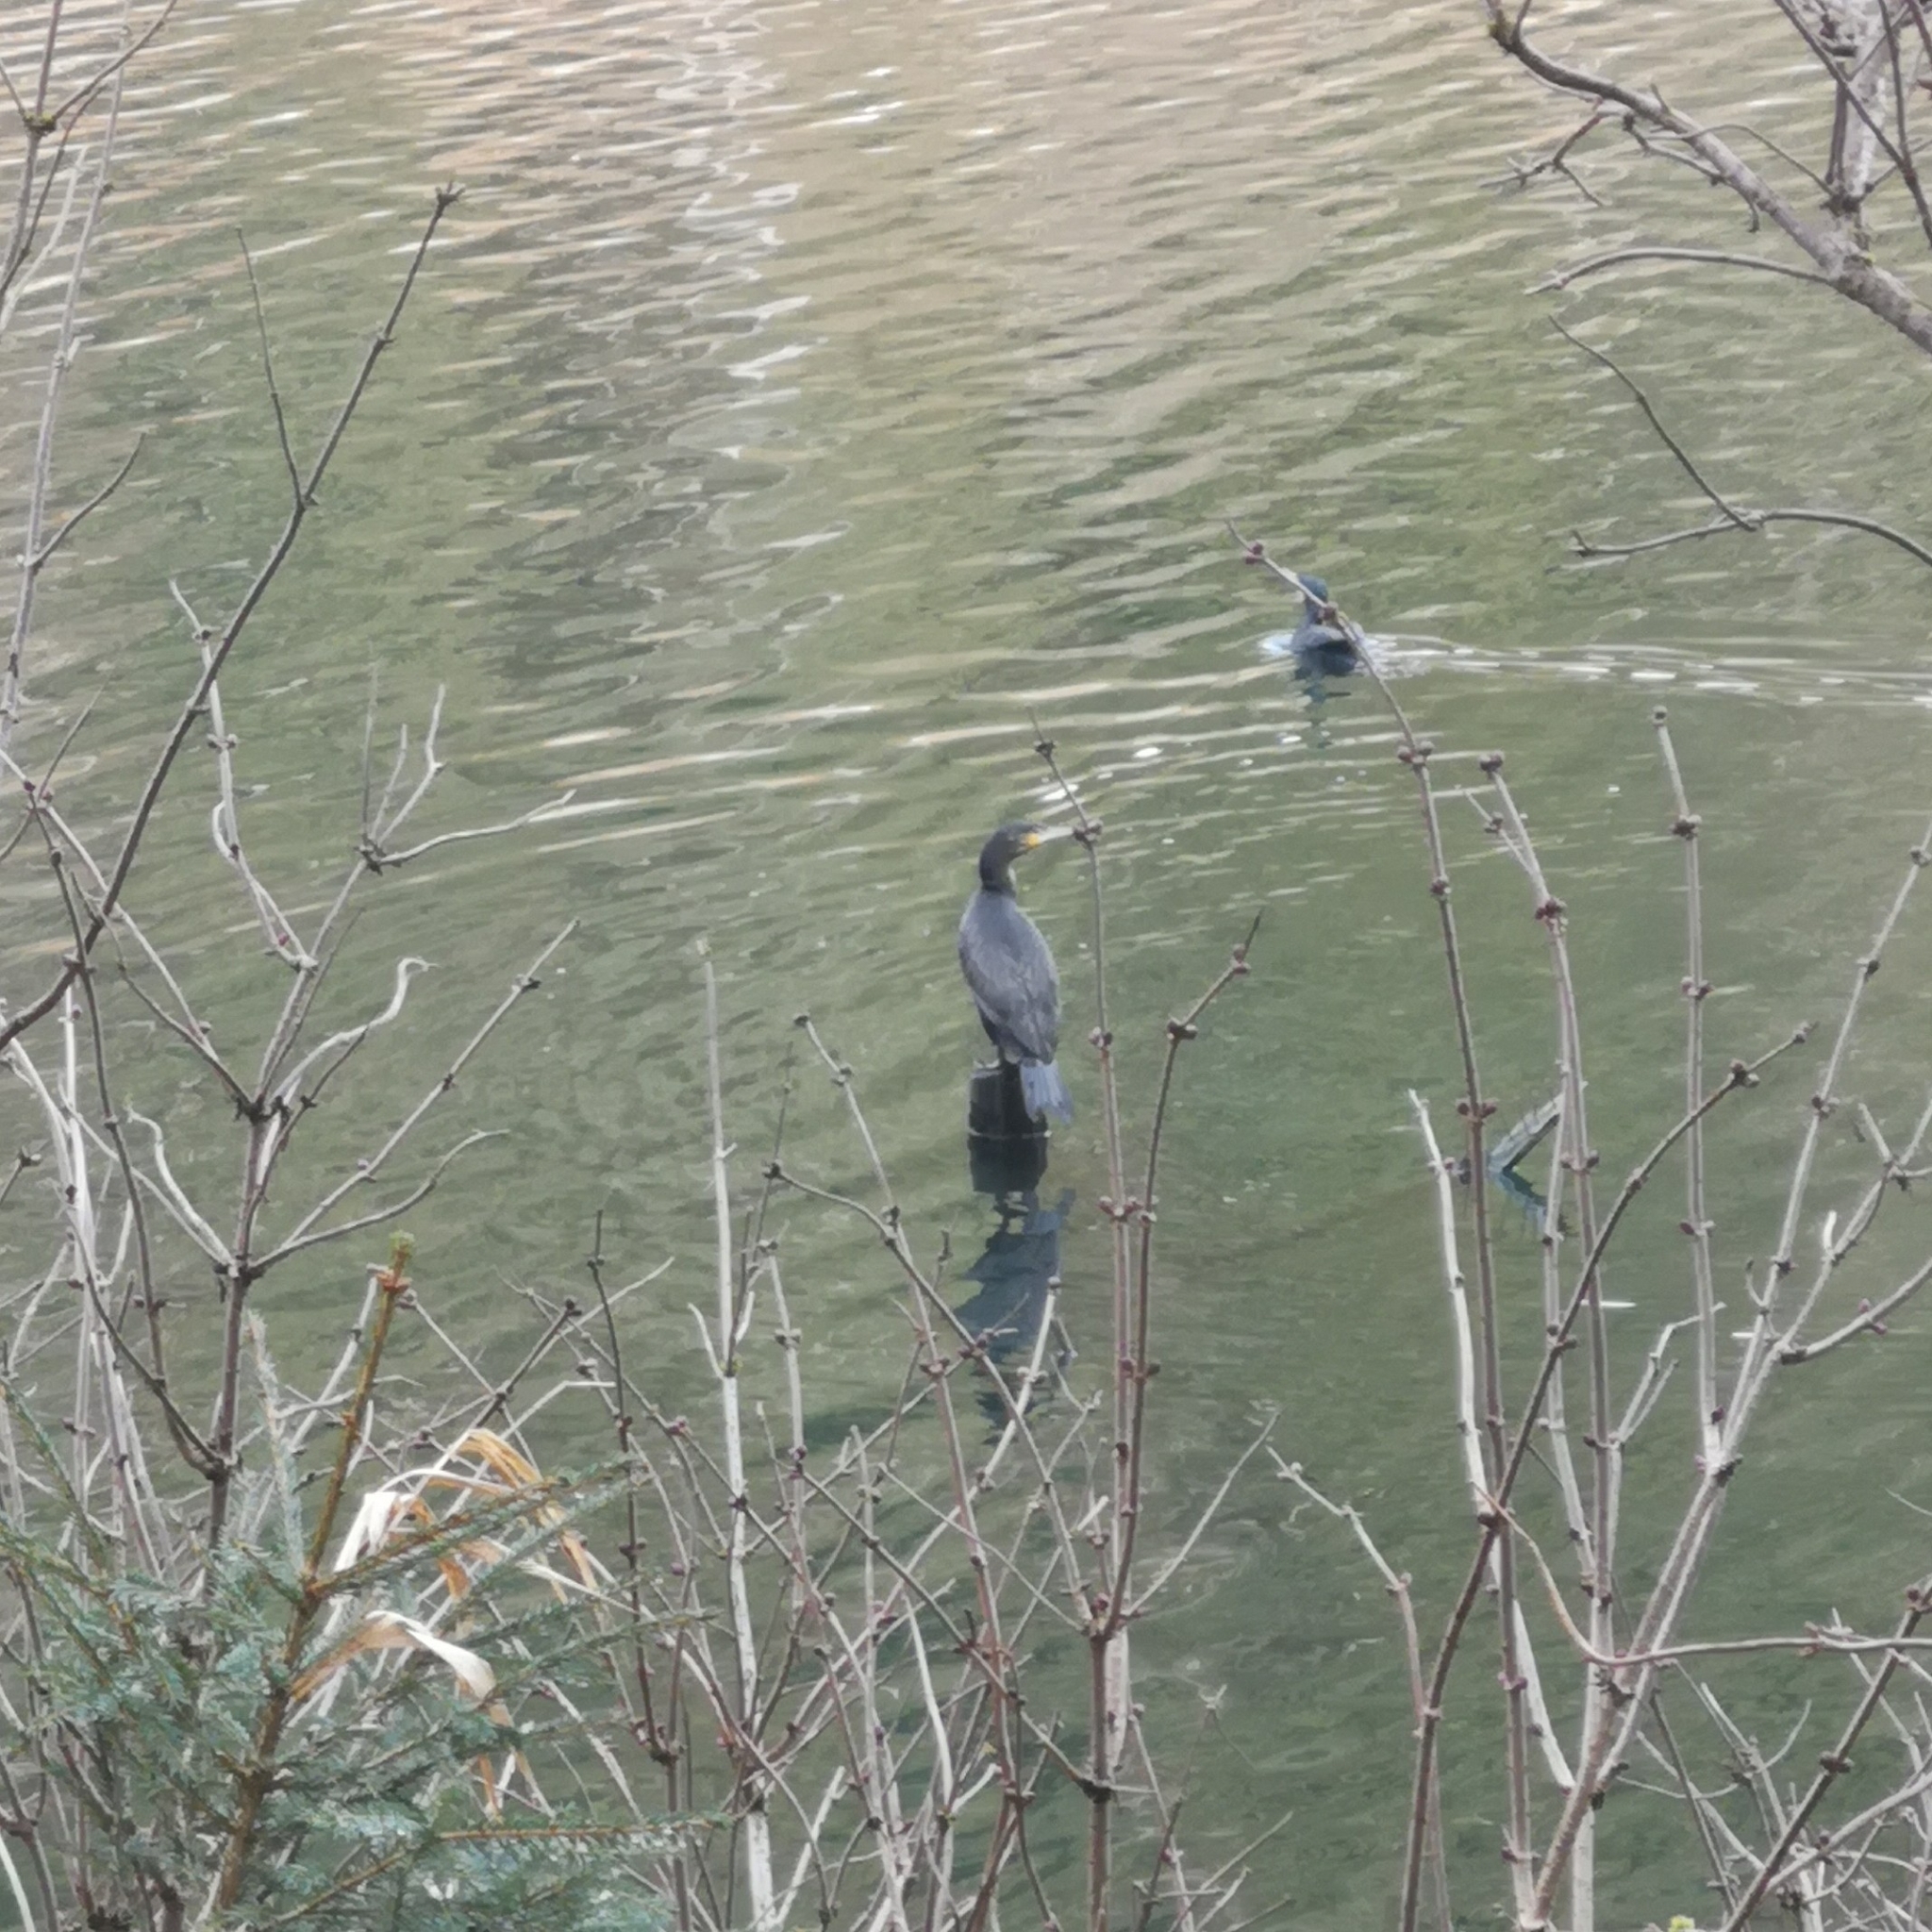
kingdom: Animalia
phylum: Chordata
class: Aves
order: Suliformes
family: Phalacrocoracidae
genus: Phalacrocorax
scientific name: Phalacrocorax carbo
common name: Great cormorant
